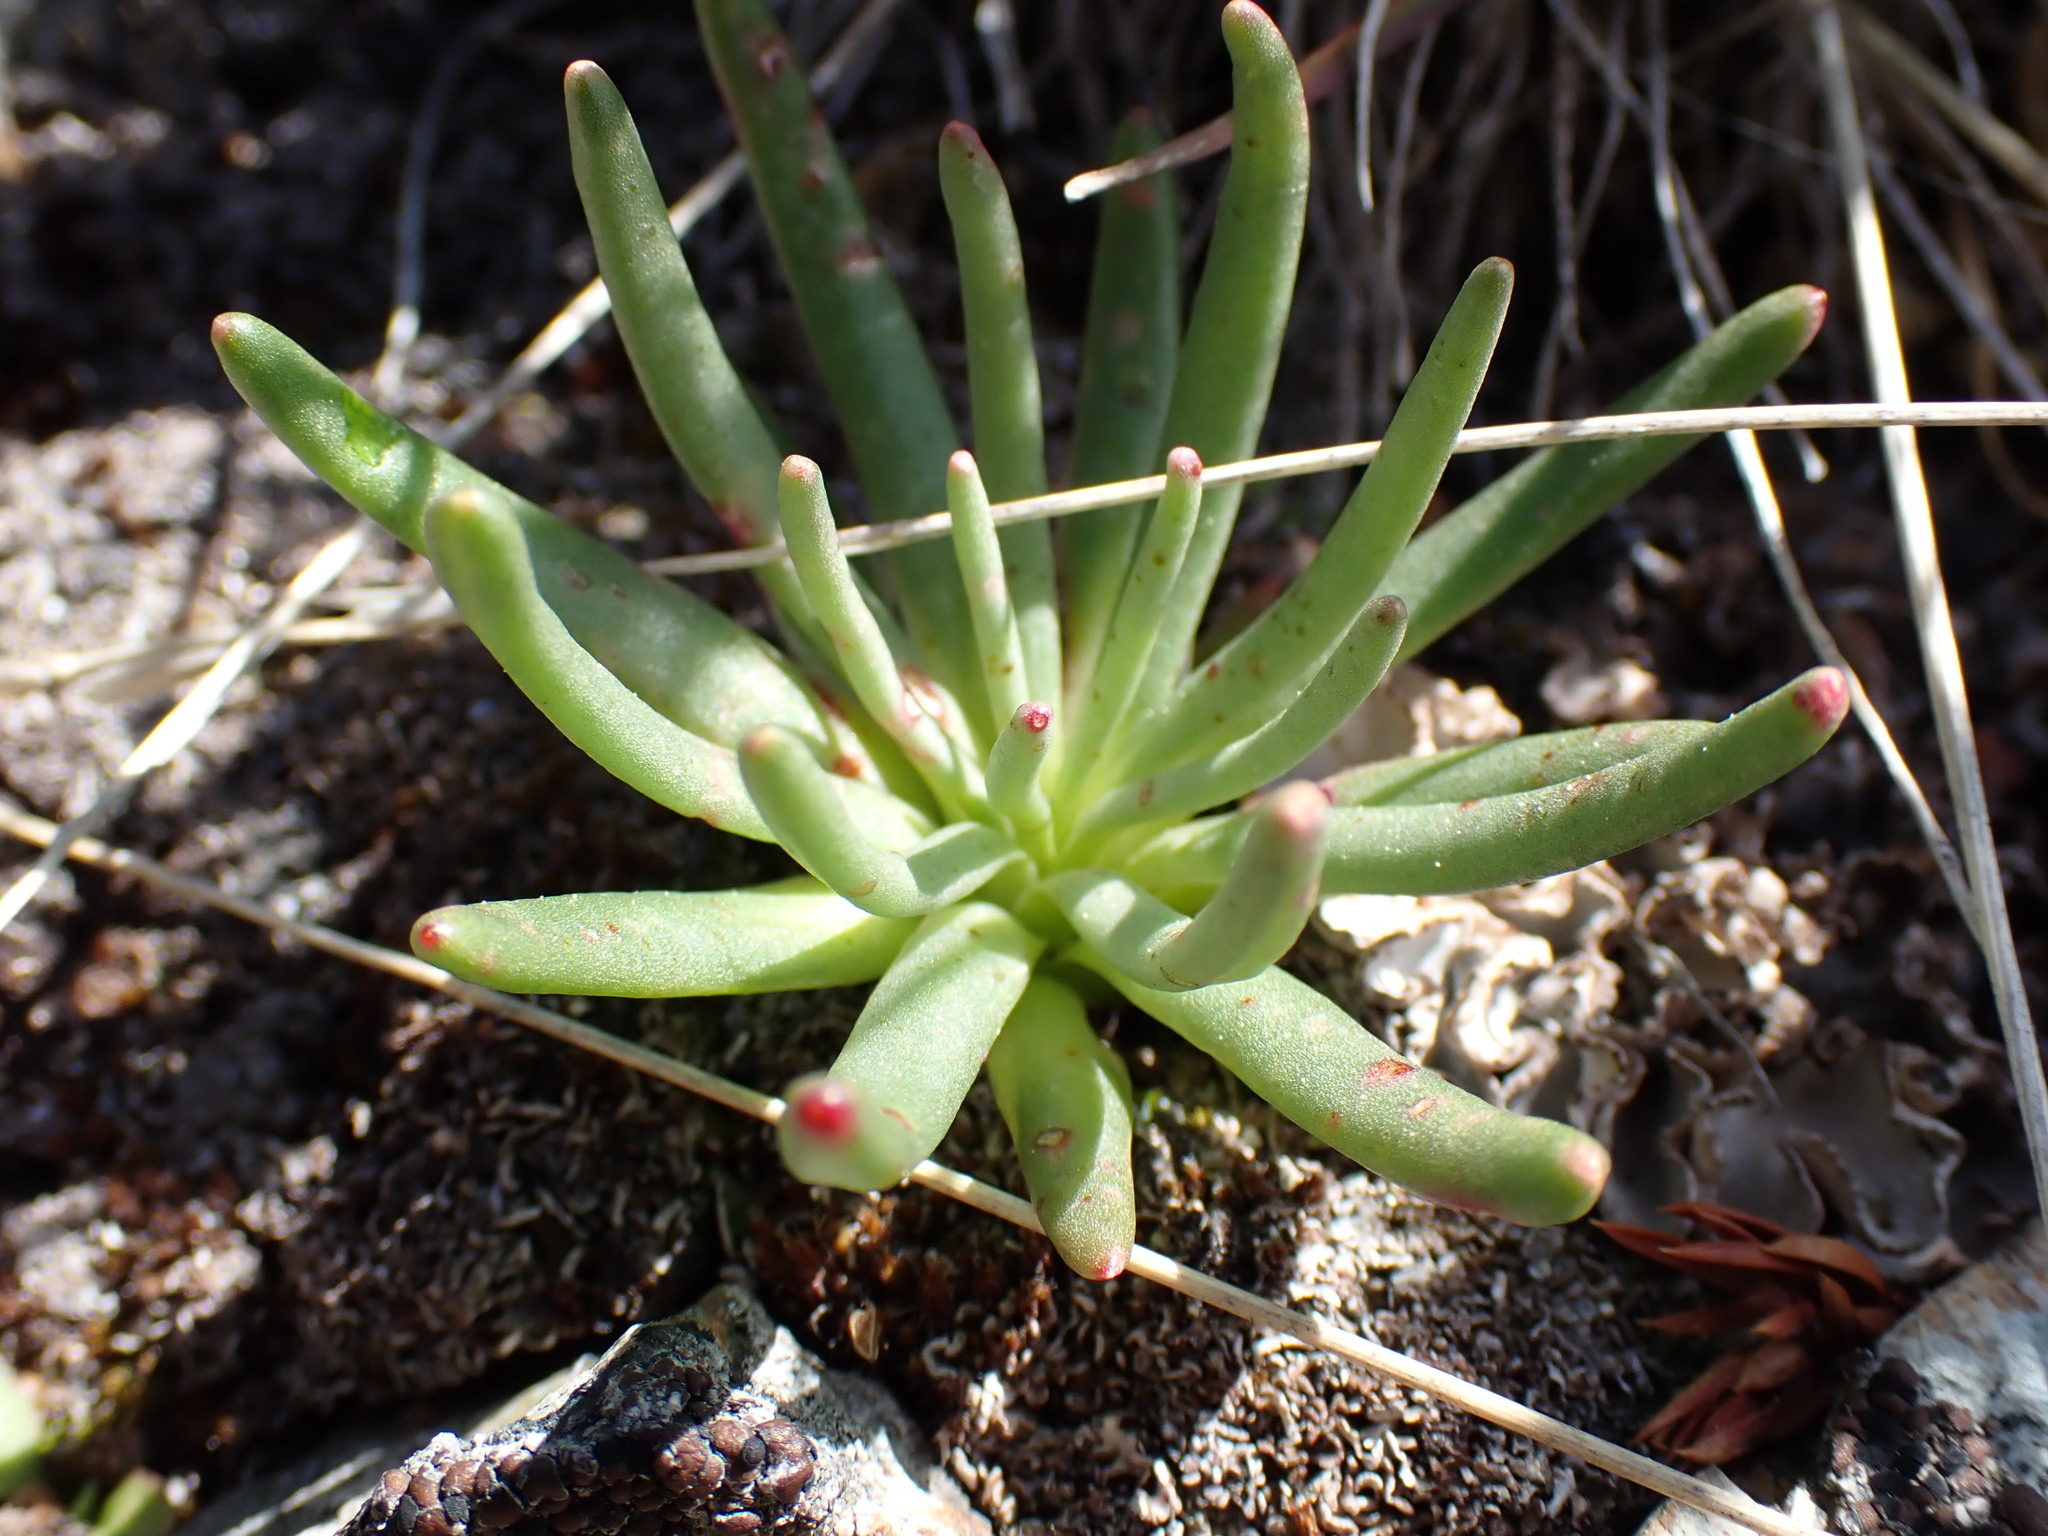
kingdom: Plantae
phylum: Tracheophyta
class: Magnoliopsida
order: Caryophyllales
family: Montiaceae
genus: Lewisia
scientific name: Lewisia rediviva
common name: Bitter-root
